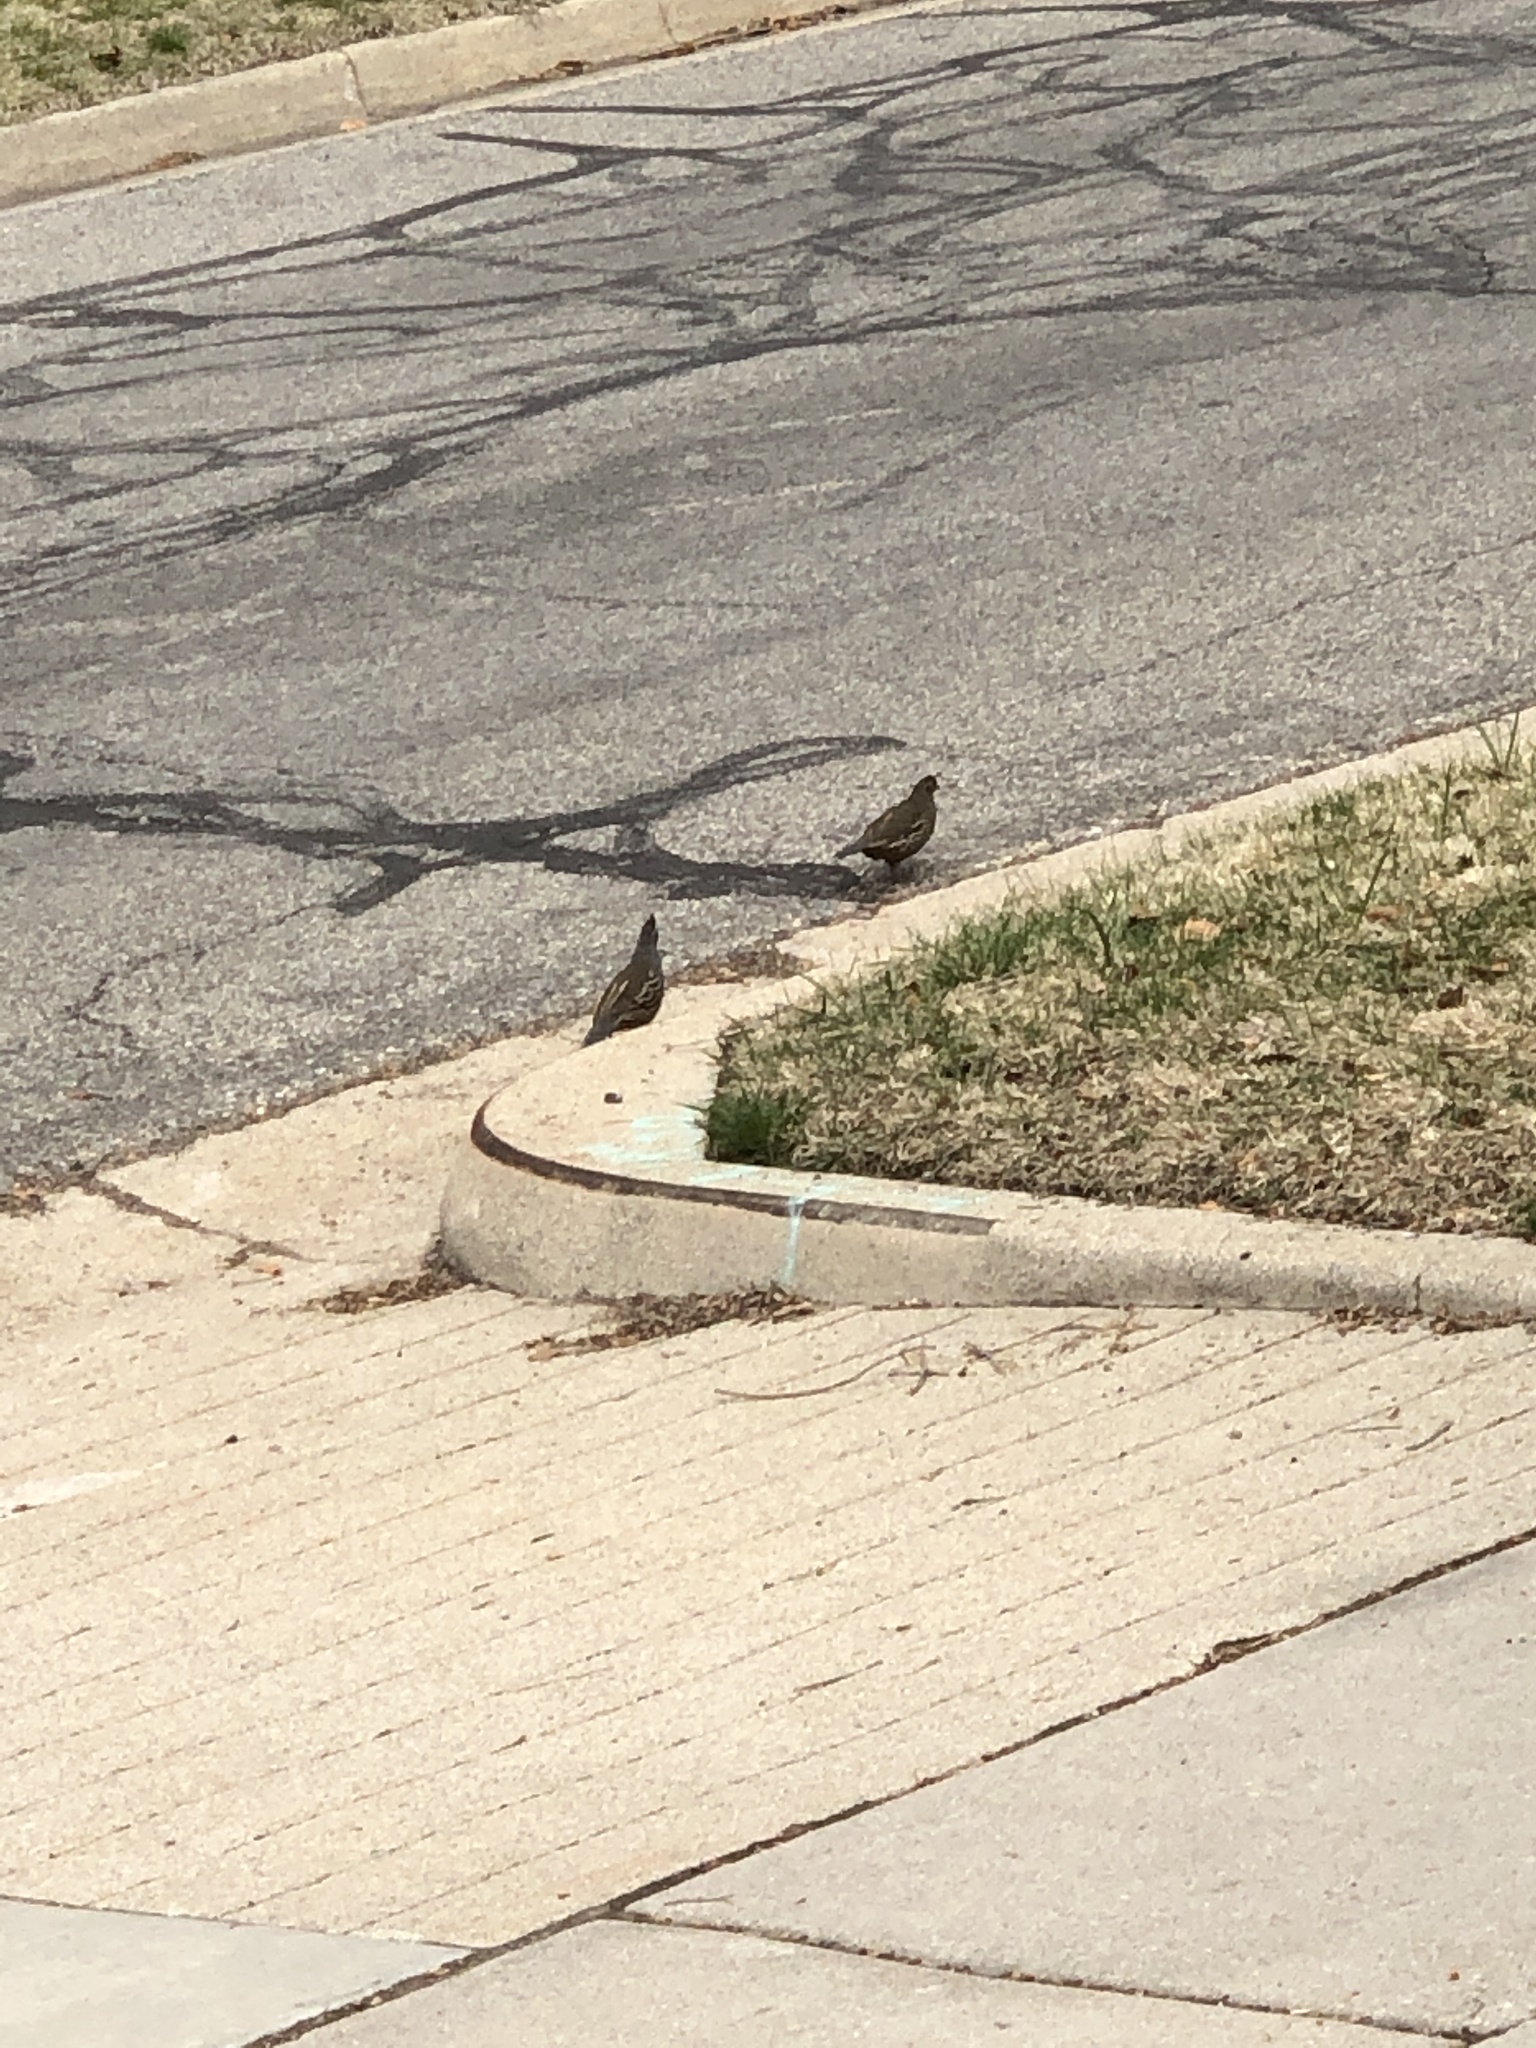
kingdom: Animalia
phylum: Chordata
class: Aves
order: Galliformes
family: Odontophoridae
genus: Callipepla
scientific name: Callipepla californica
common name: California quail
